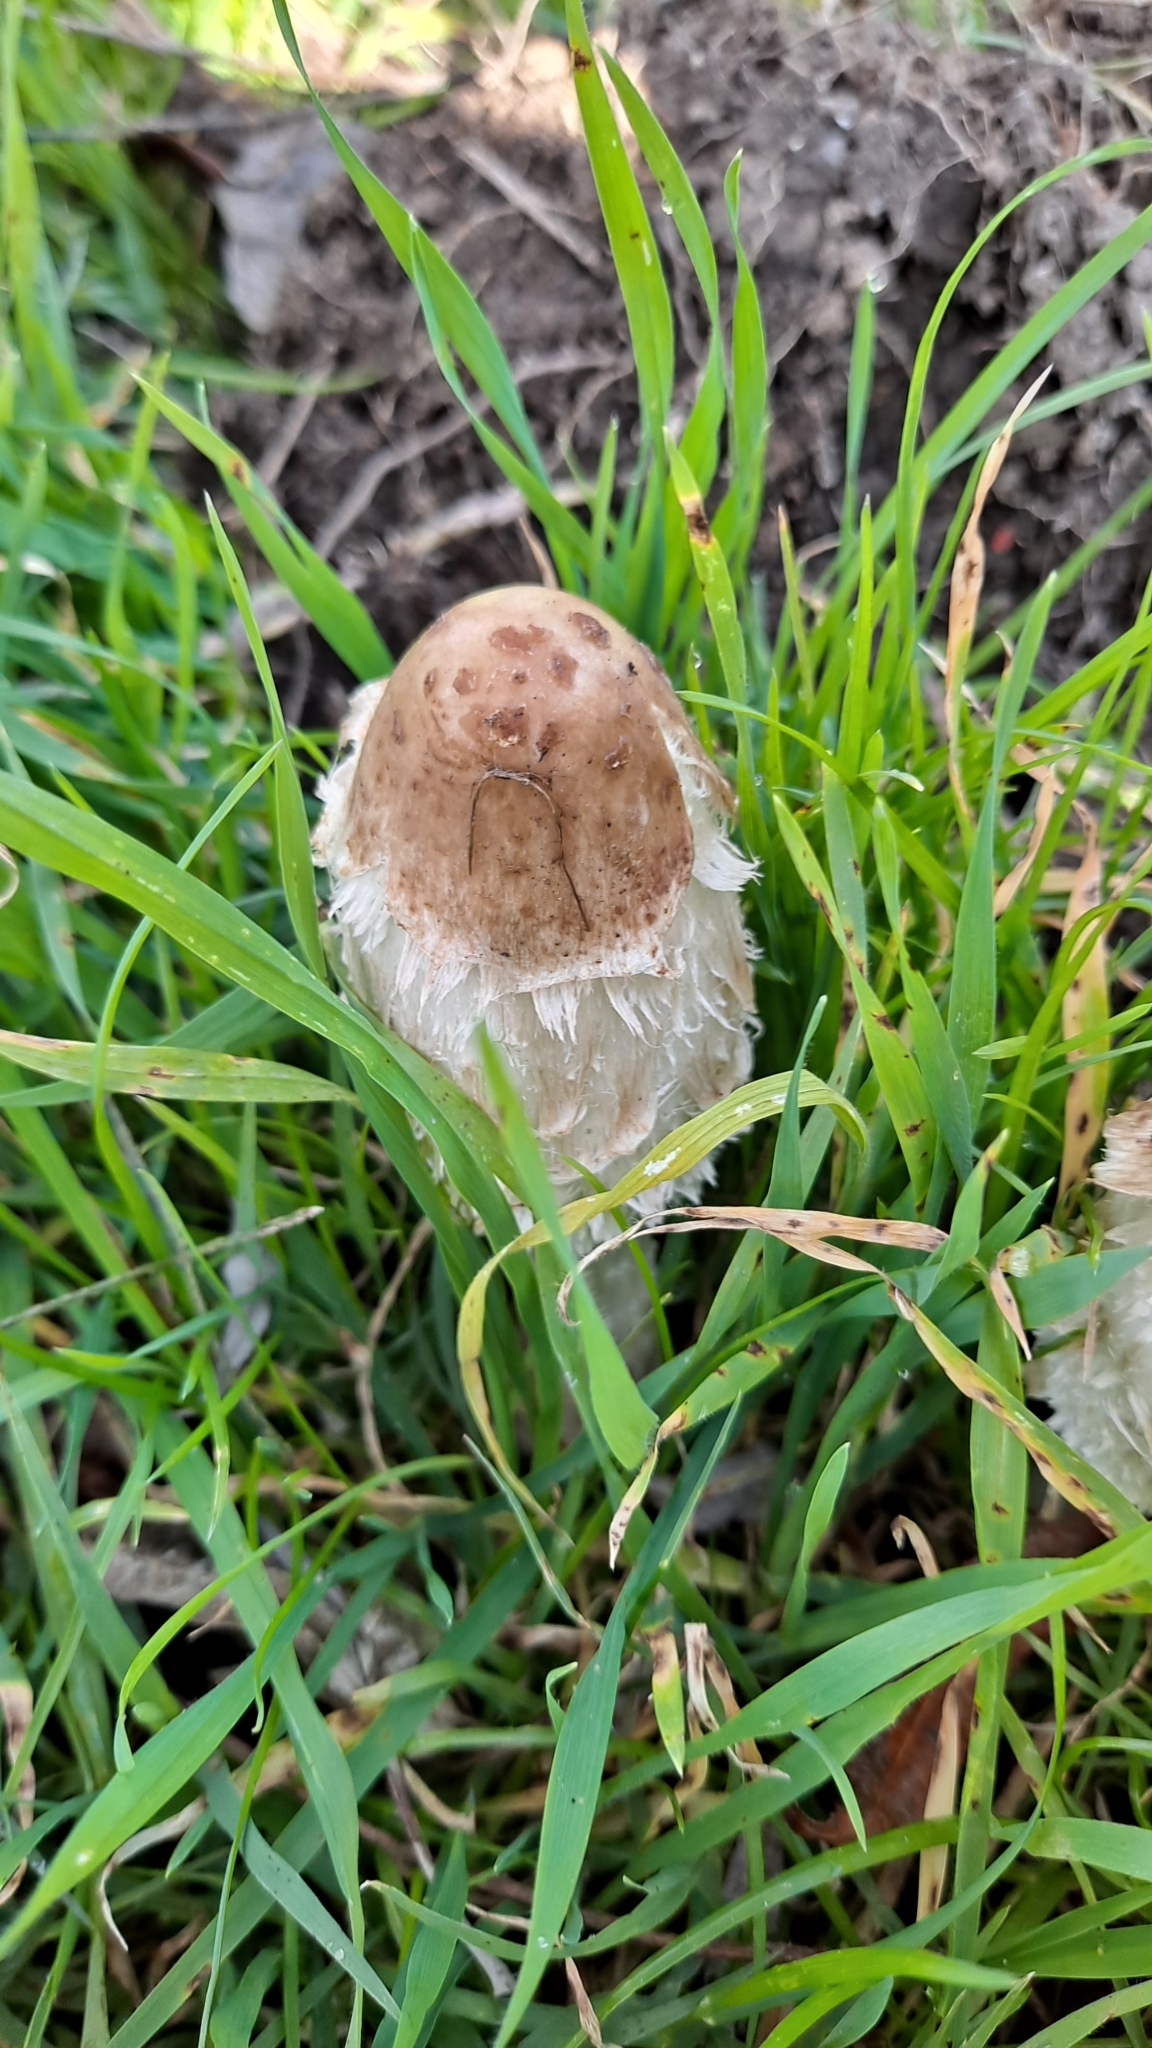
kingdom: Fungi
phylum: Basidiomycota
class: Agaricomycetes
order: Agaricales
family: Agaricaceae
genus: Coprinus
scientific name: Coprinus comatus
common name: Lawyer's wig
